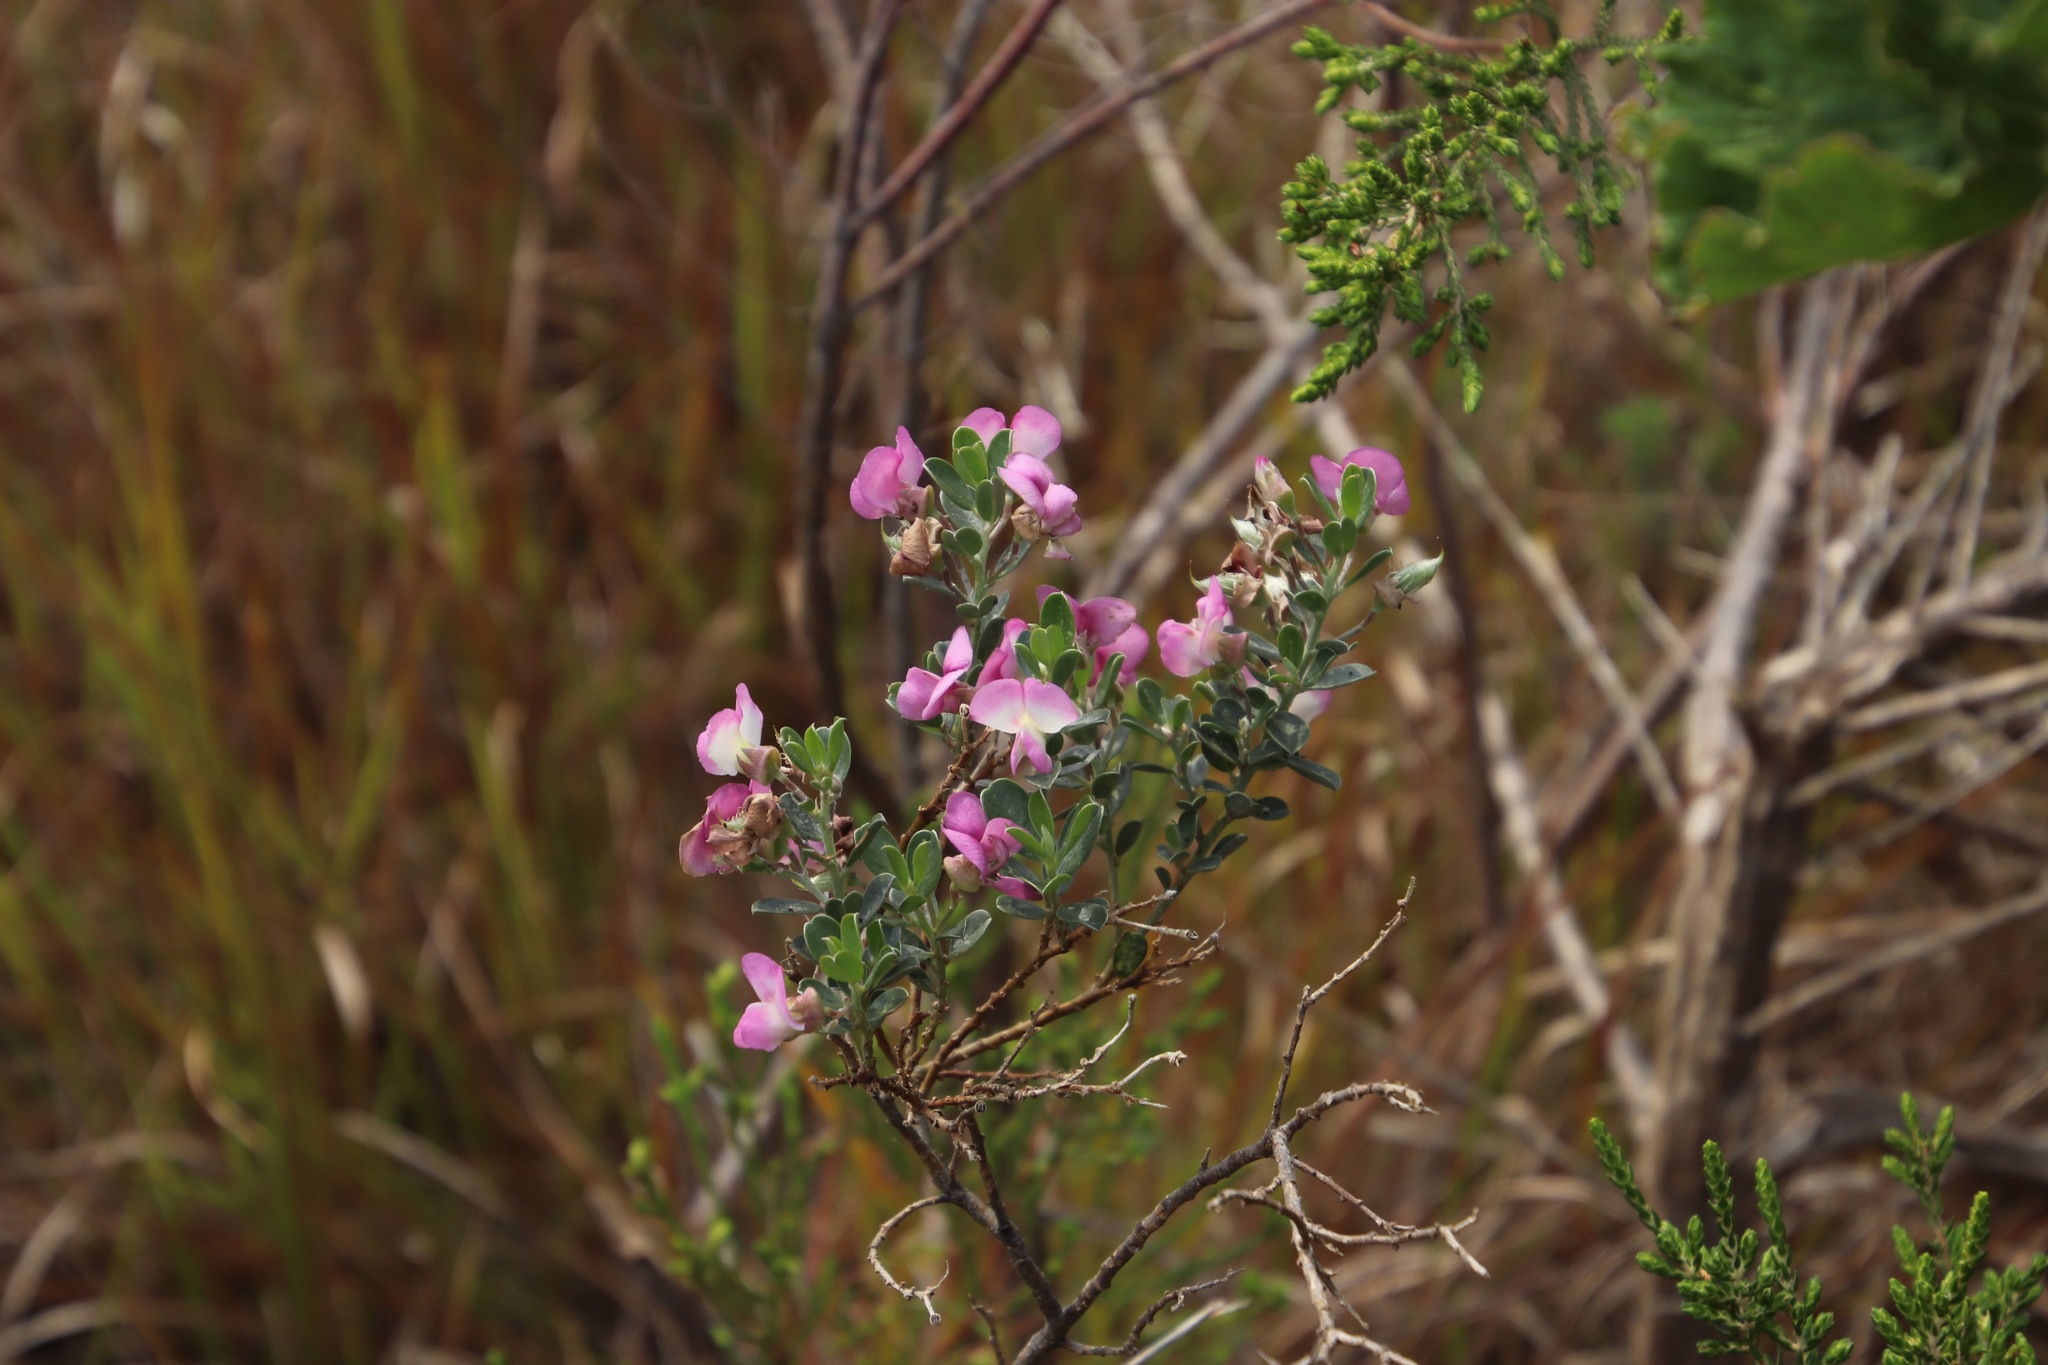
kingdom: Plantae
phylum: Tracheophyta
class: Magnoliopsida
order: Fabales
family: Fabaceae
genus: Podalyria
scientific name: Podalyria myrtillifolia
